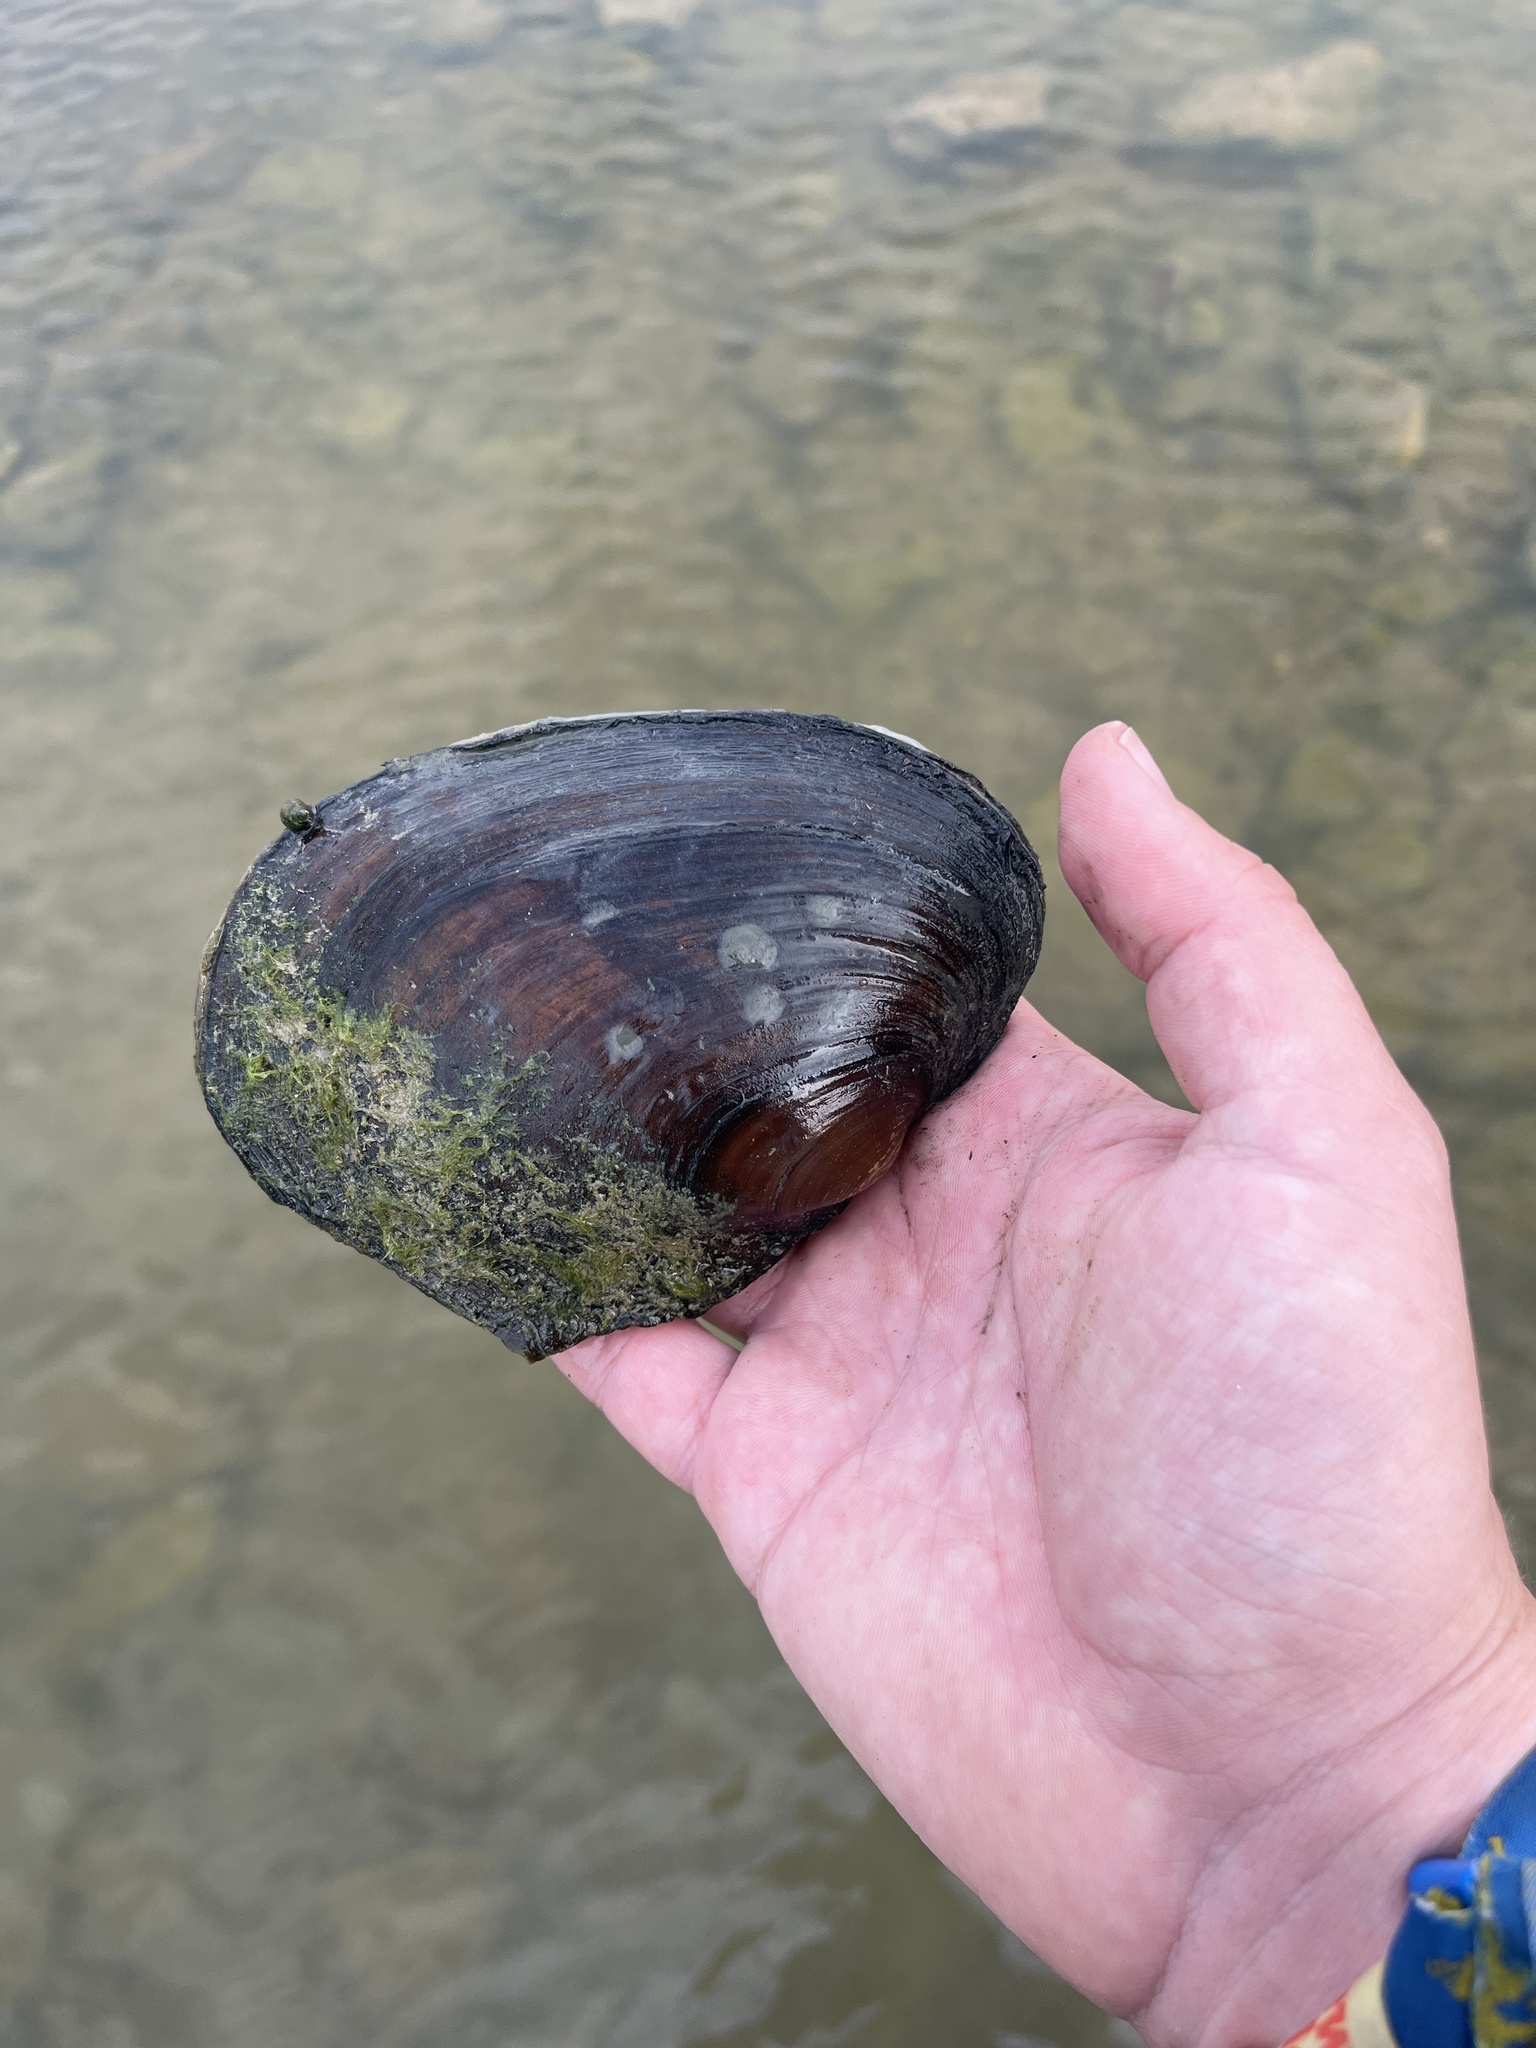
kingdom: Animalia
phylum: Mollusca
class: Bivalvia
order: Unionida
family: Unionidae
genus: Potamilus
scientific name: Potamilus alatus
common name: Pink heelsplitter
